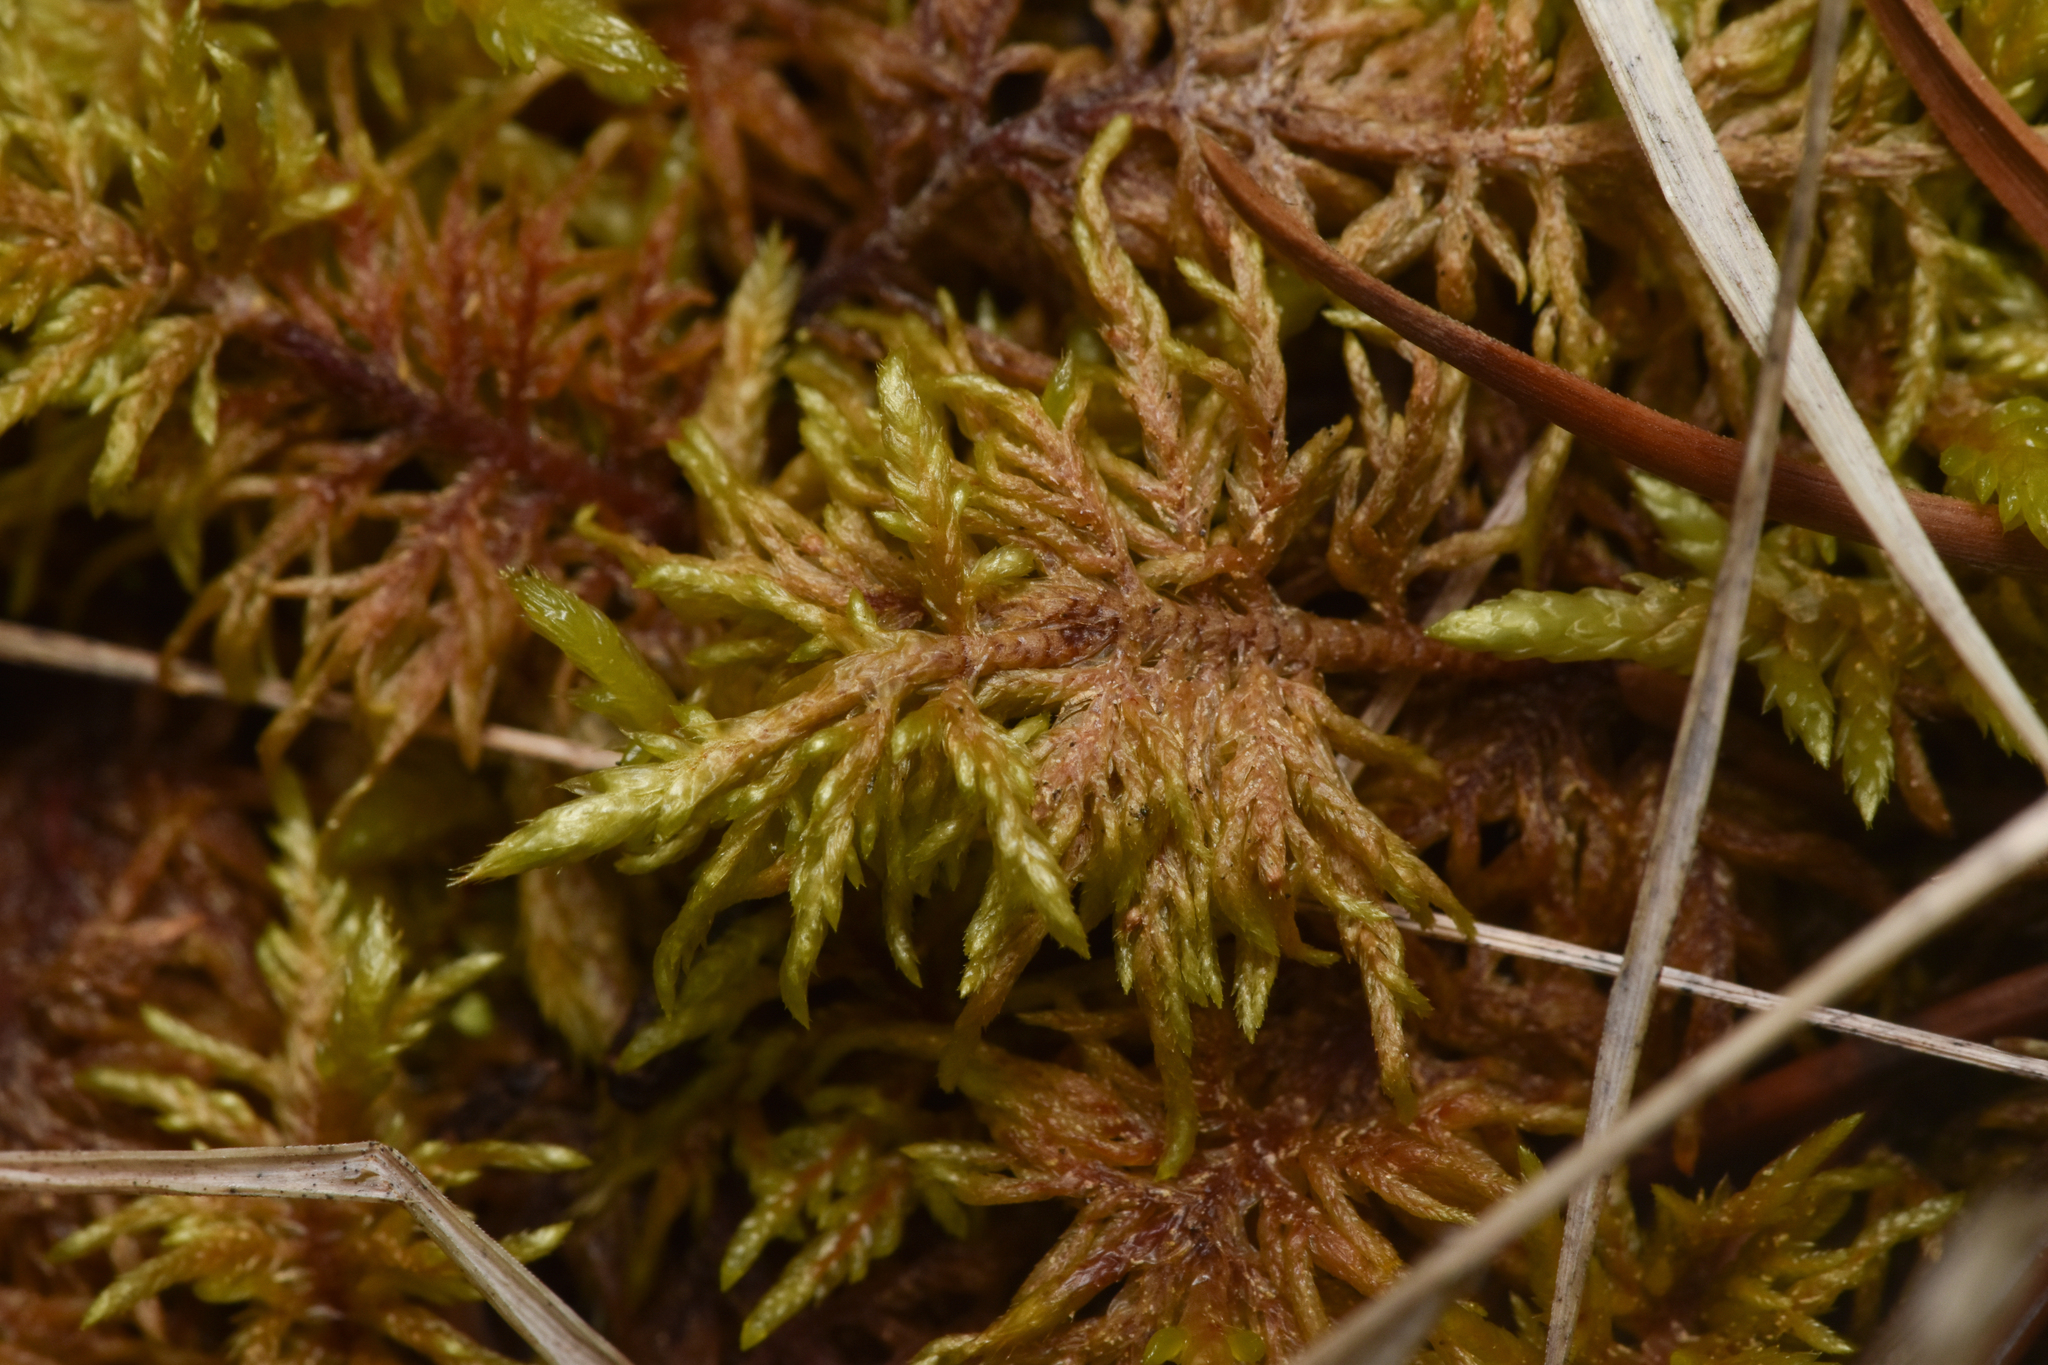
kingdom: Plantae
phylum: Bryophyta
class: Bryopsida
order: Hypnales
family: Hylocomiaceae
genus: Hylocomium
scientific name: Hylocomium splendens
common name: Stairstep moss
